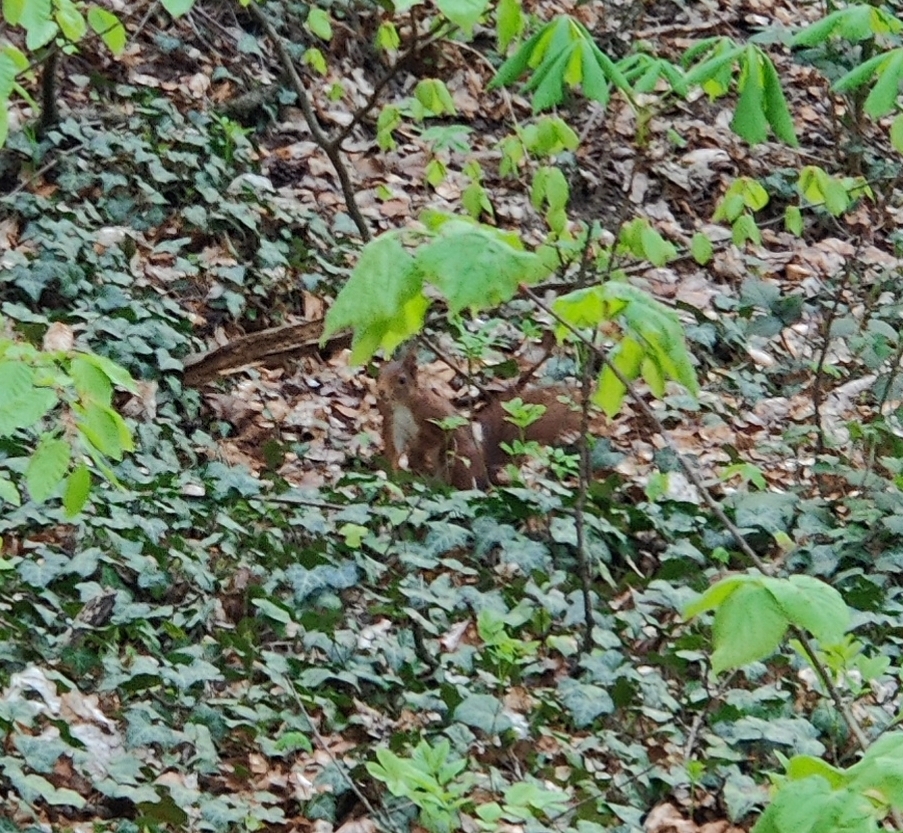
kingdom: Animalia
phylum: Chordata
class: Mammalia
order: Rodentia
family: Sciuridae
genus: Sciurus
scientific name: Sciurus vulgaris
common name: Eurasian red squirrel
